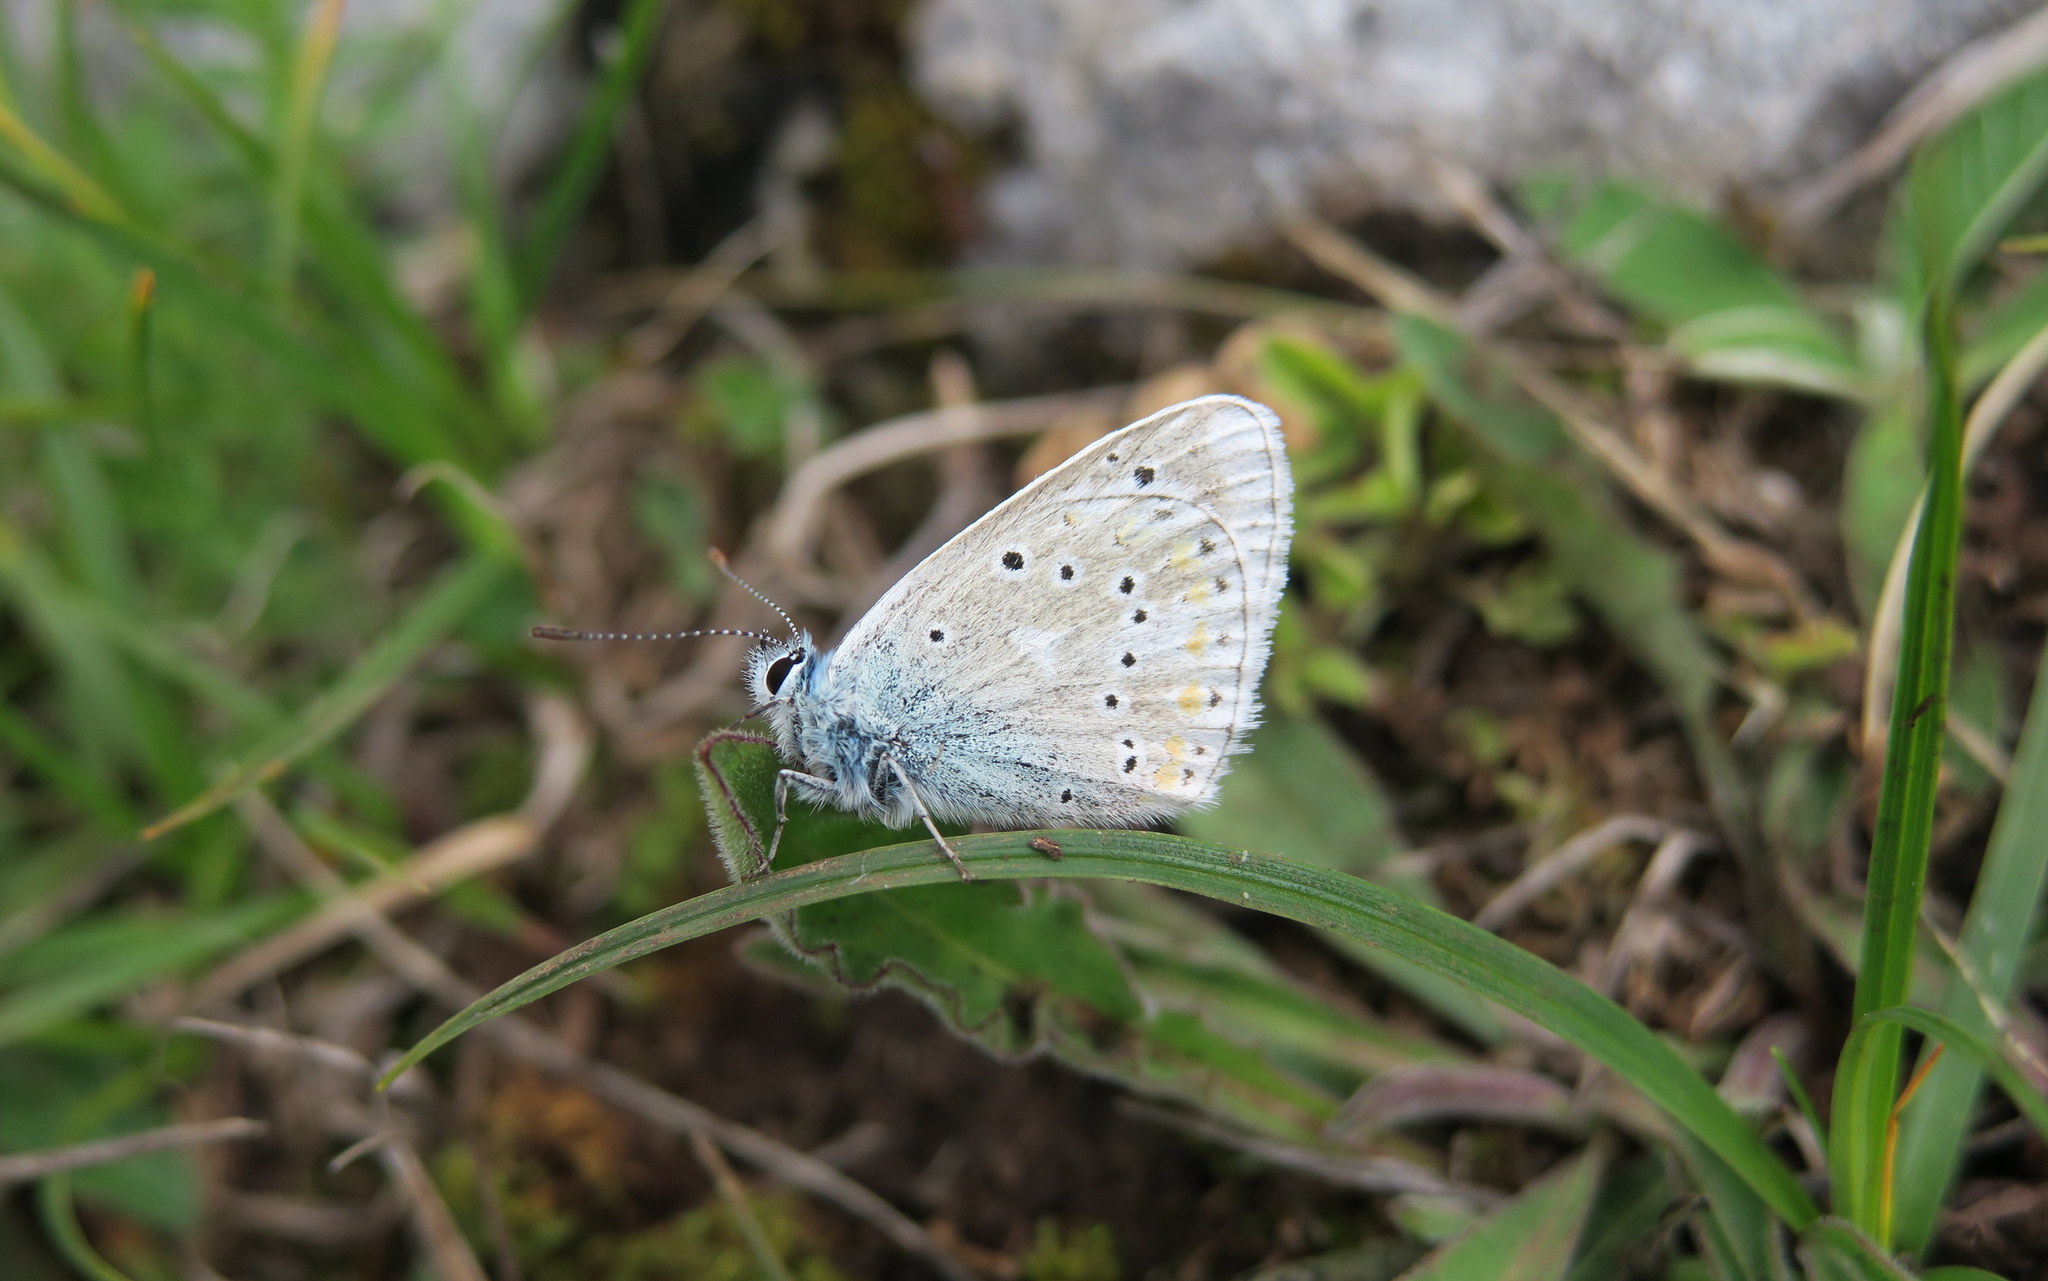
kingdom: Animalia
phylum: Arthropoda
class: Insecta
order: Lepidoptera
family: Lycaenidae
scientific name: Lycaenidae
